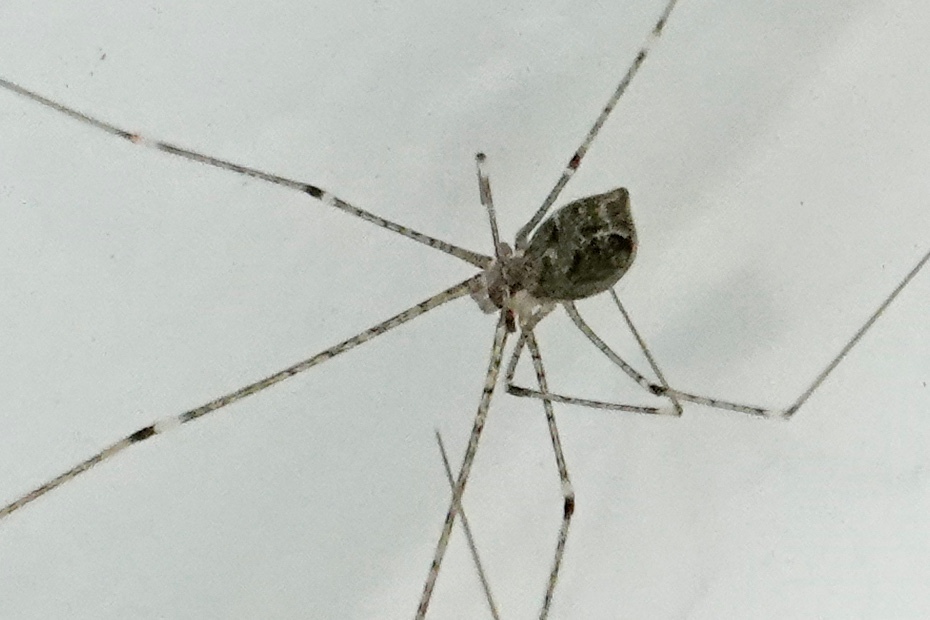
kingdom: Animalia
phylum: Arthropoda
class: Arachnida
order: Araneae
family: Pholcidae
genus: Crossopriza
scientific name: Crossopriza lyoni
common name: Cellar spiders
